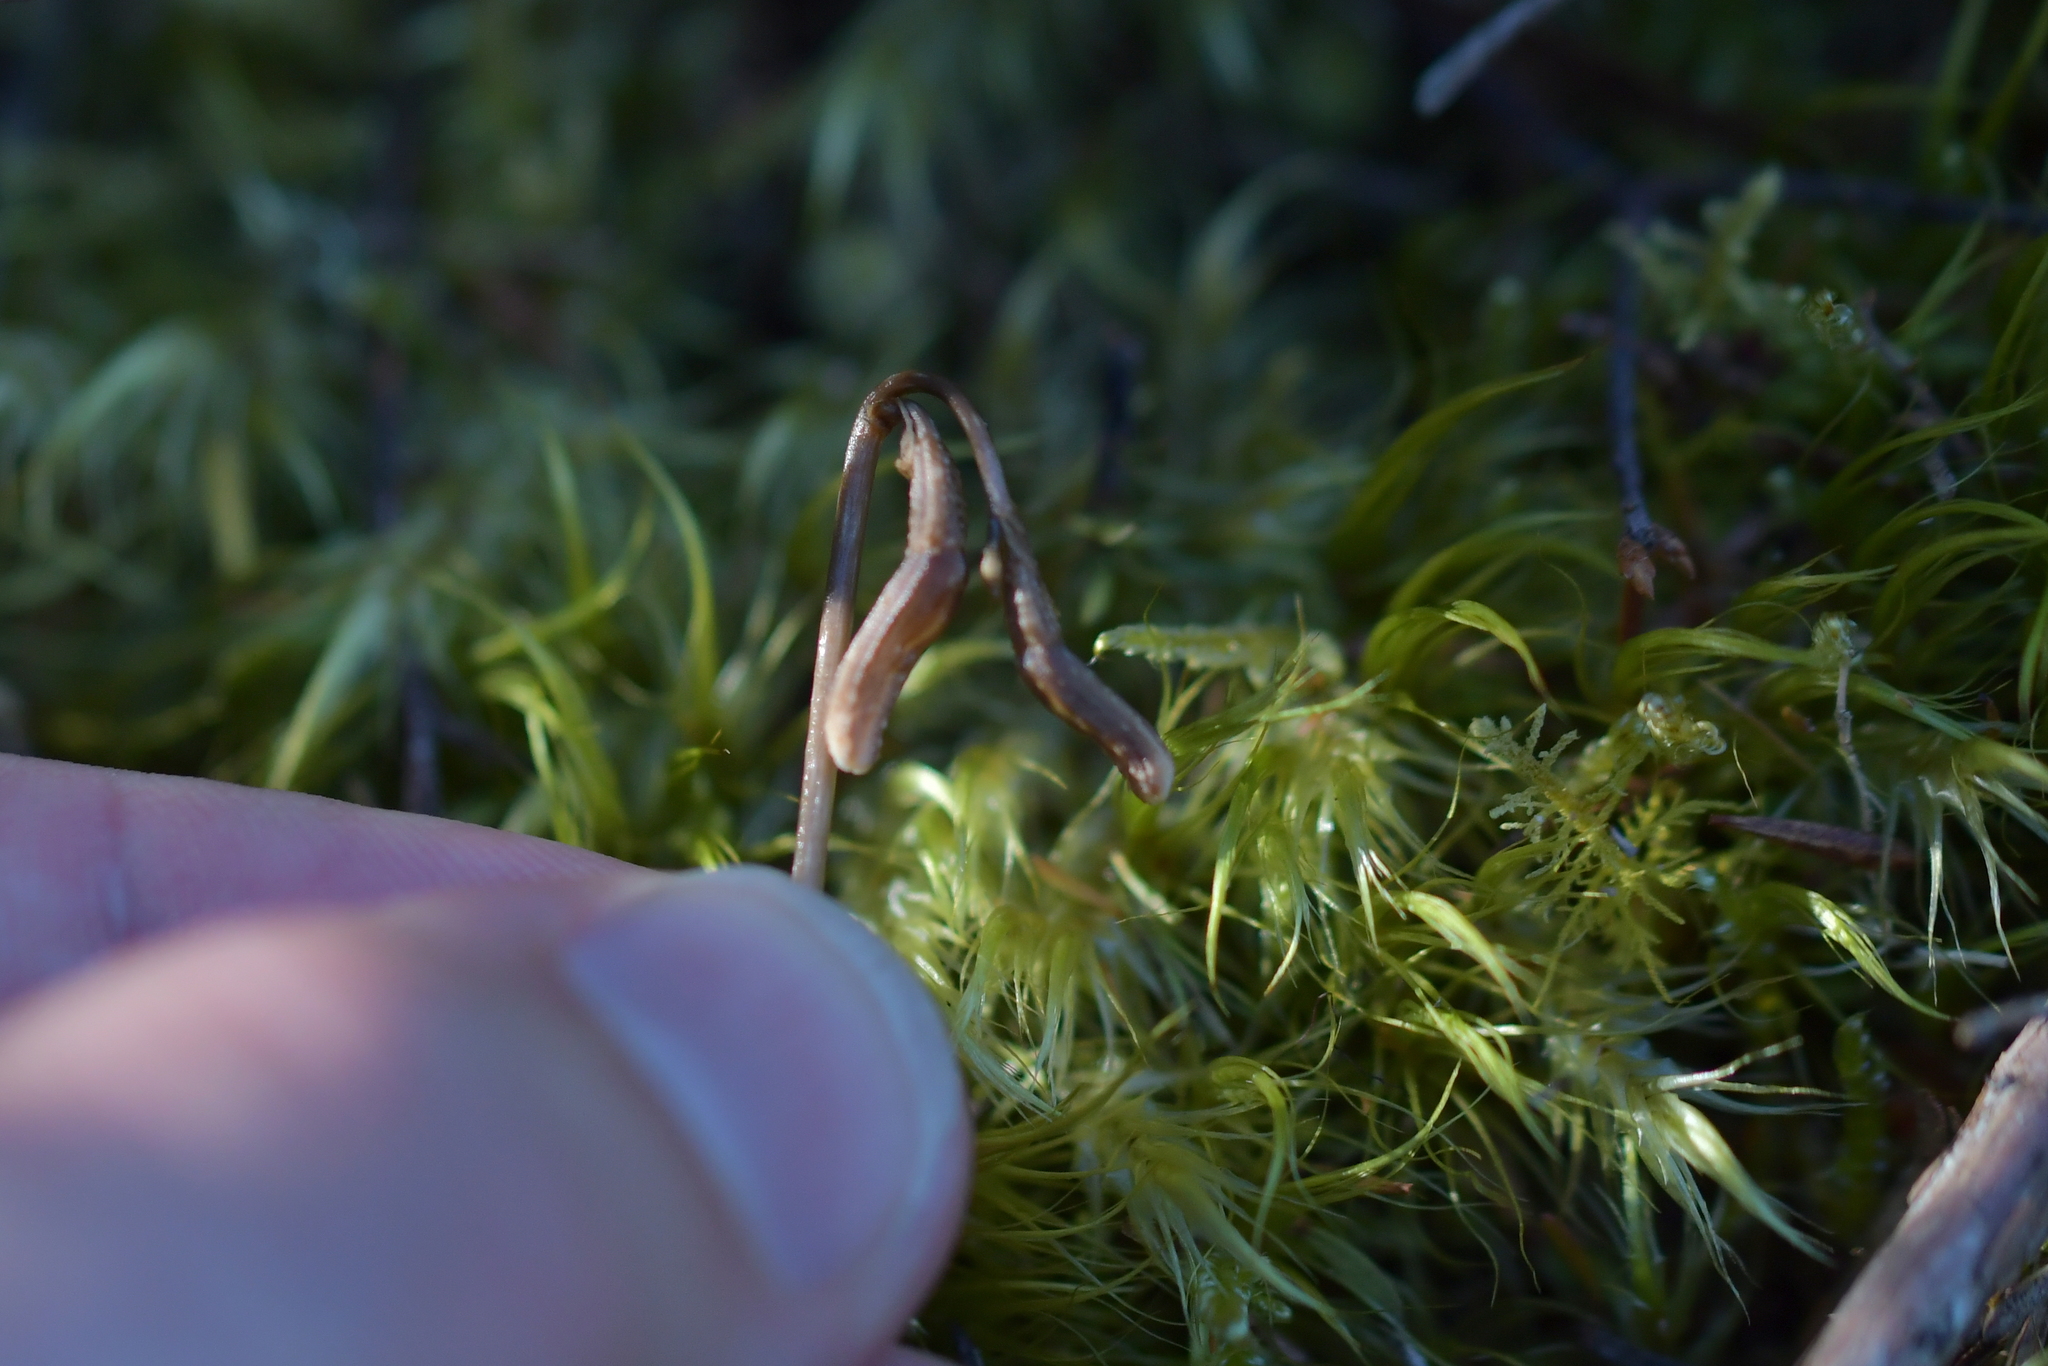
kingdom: Plantae
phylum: Tracheophyta
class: Liliopsida
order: Asparagales
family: Orchidaceae
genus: Gastrodia
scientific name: Gastrodia minor
